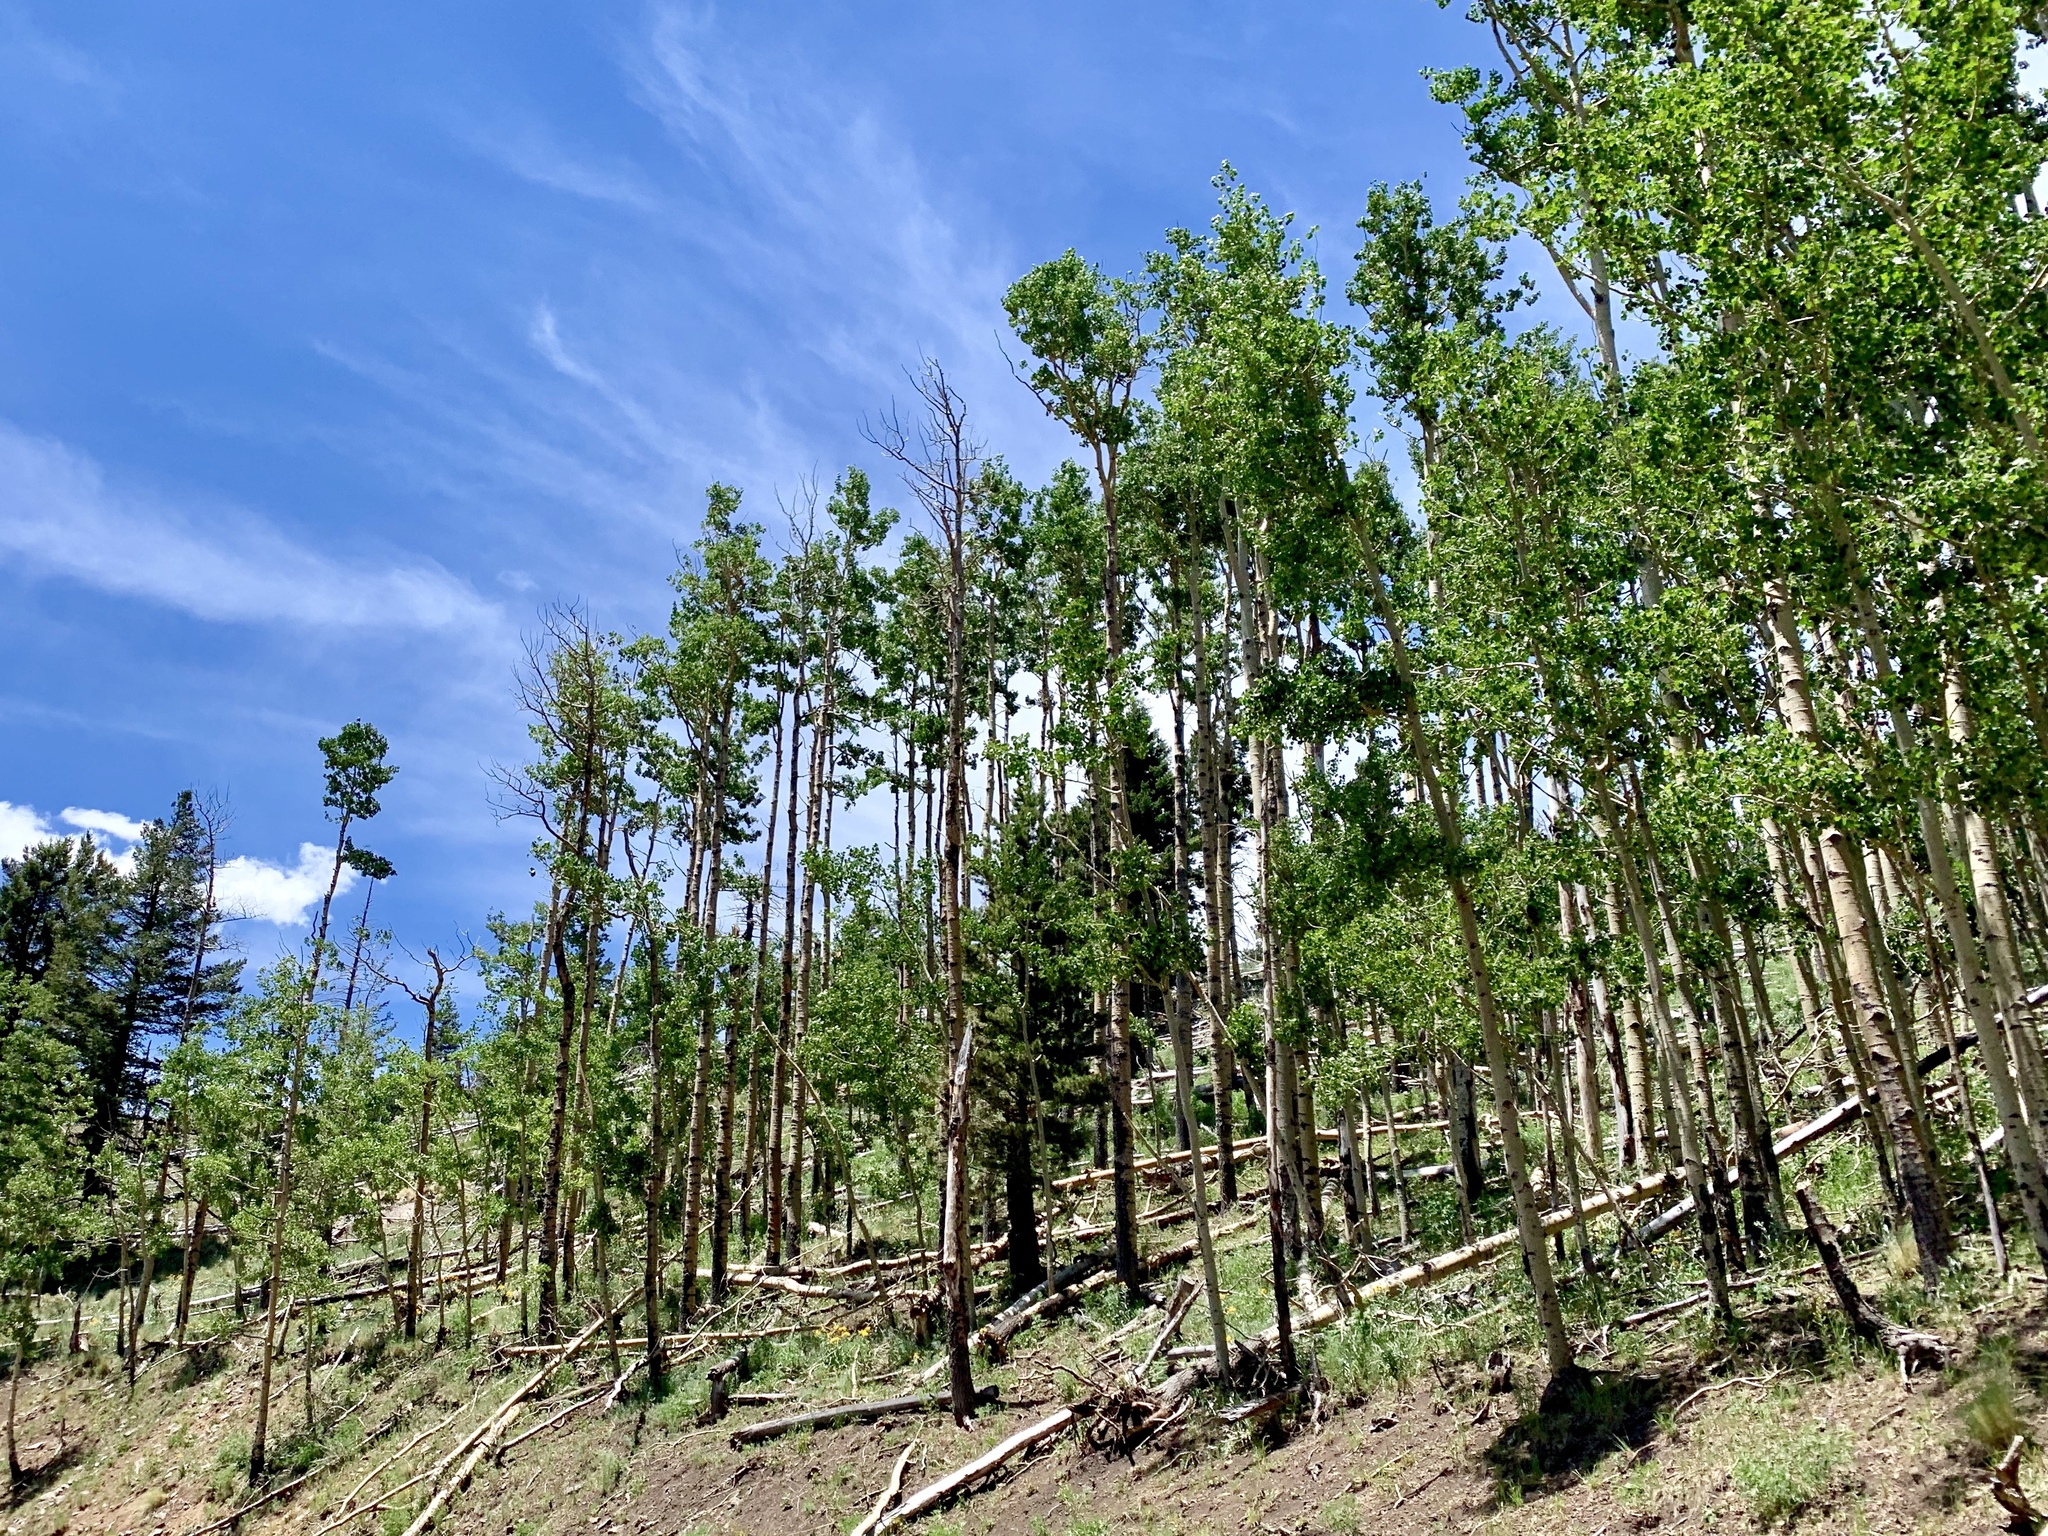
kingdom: Plantae
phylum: Tracheophyta
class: Magnoliopsida
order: Malpighiales
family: Salicaceae
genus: Populus
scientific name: Populus tremuloides
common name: Quaking aspen
